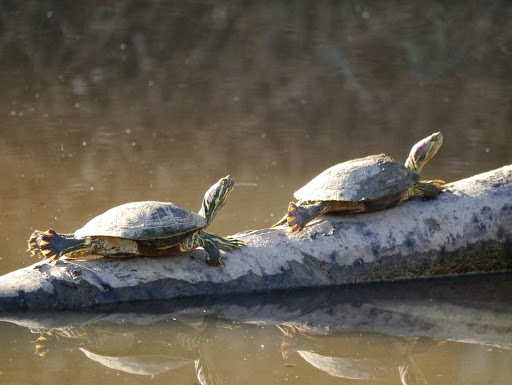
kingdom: Animalia
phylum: Chordata
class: Testudines
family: Emydidae
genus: Trachemys
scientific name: Trachemys scripta
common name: Slider
